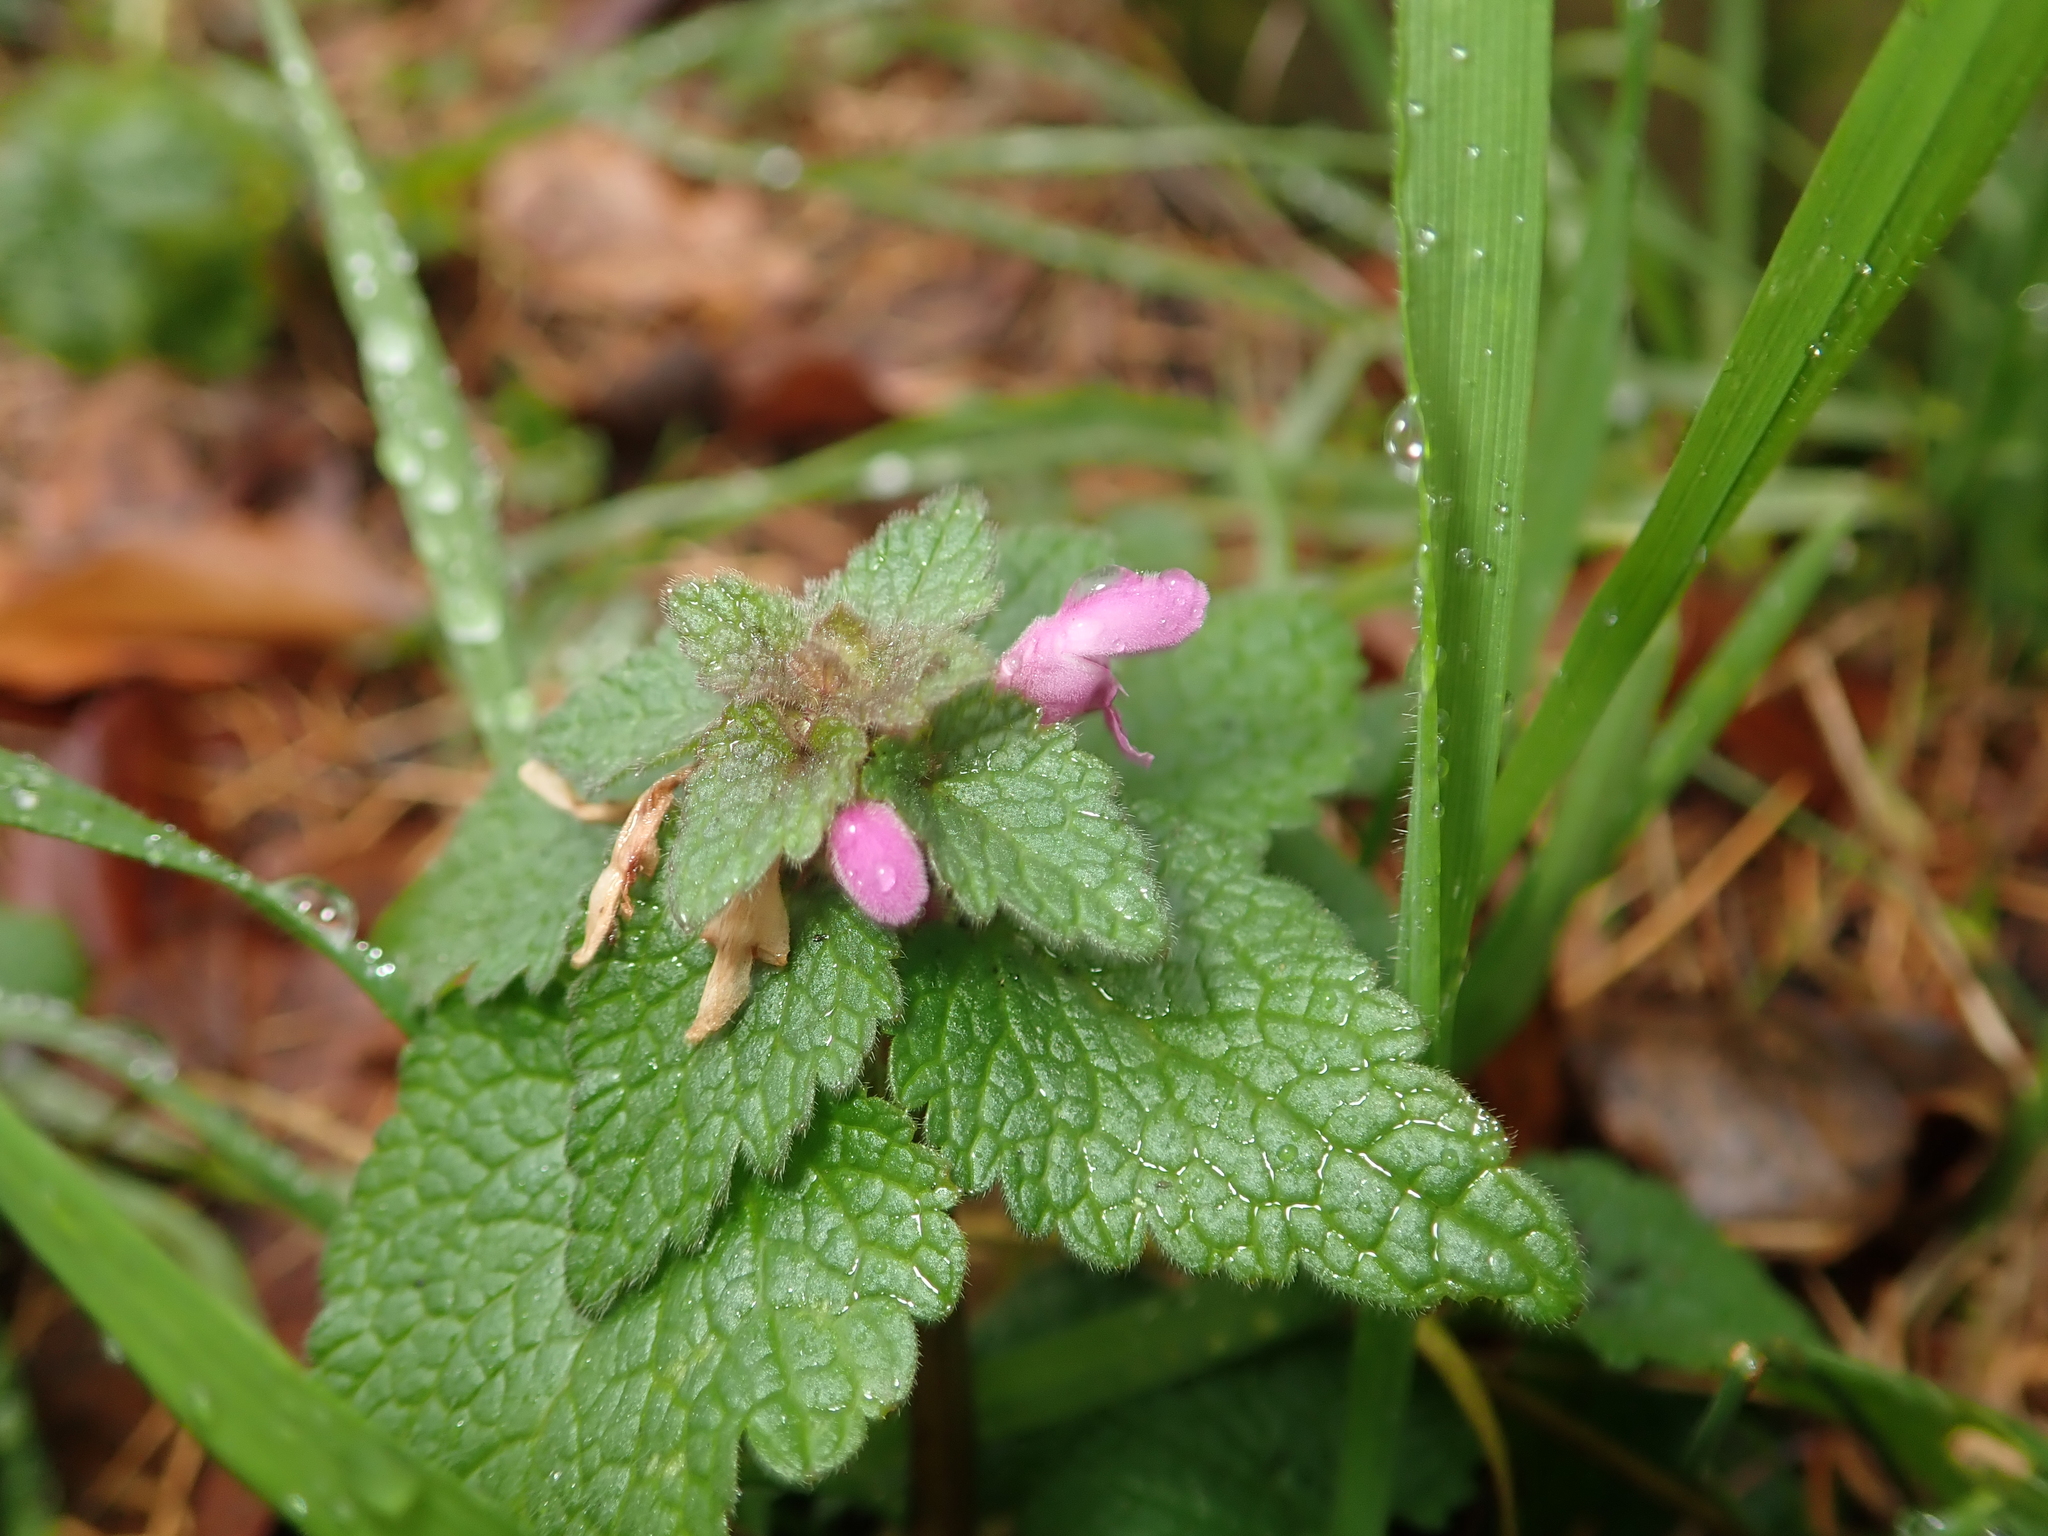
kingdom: Plantae
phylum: Tracheophyta
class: Magnoliopsida
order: Lamiales
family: Lamiaceae
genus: Lamium
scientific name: Lamium purpureum
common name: Red dead-nettle
